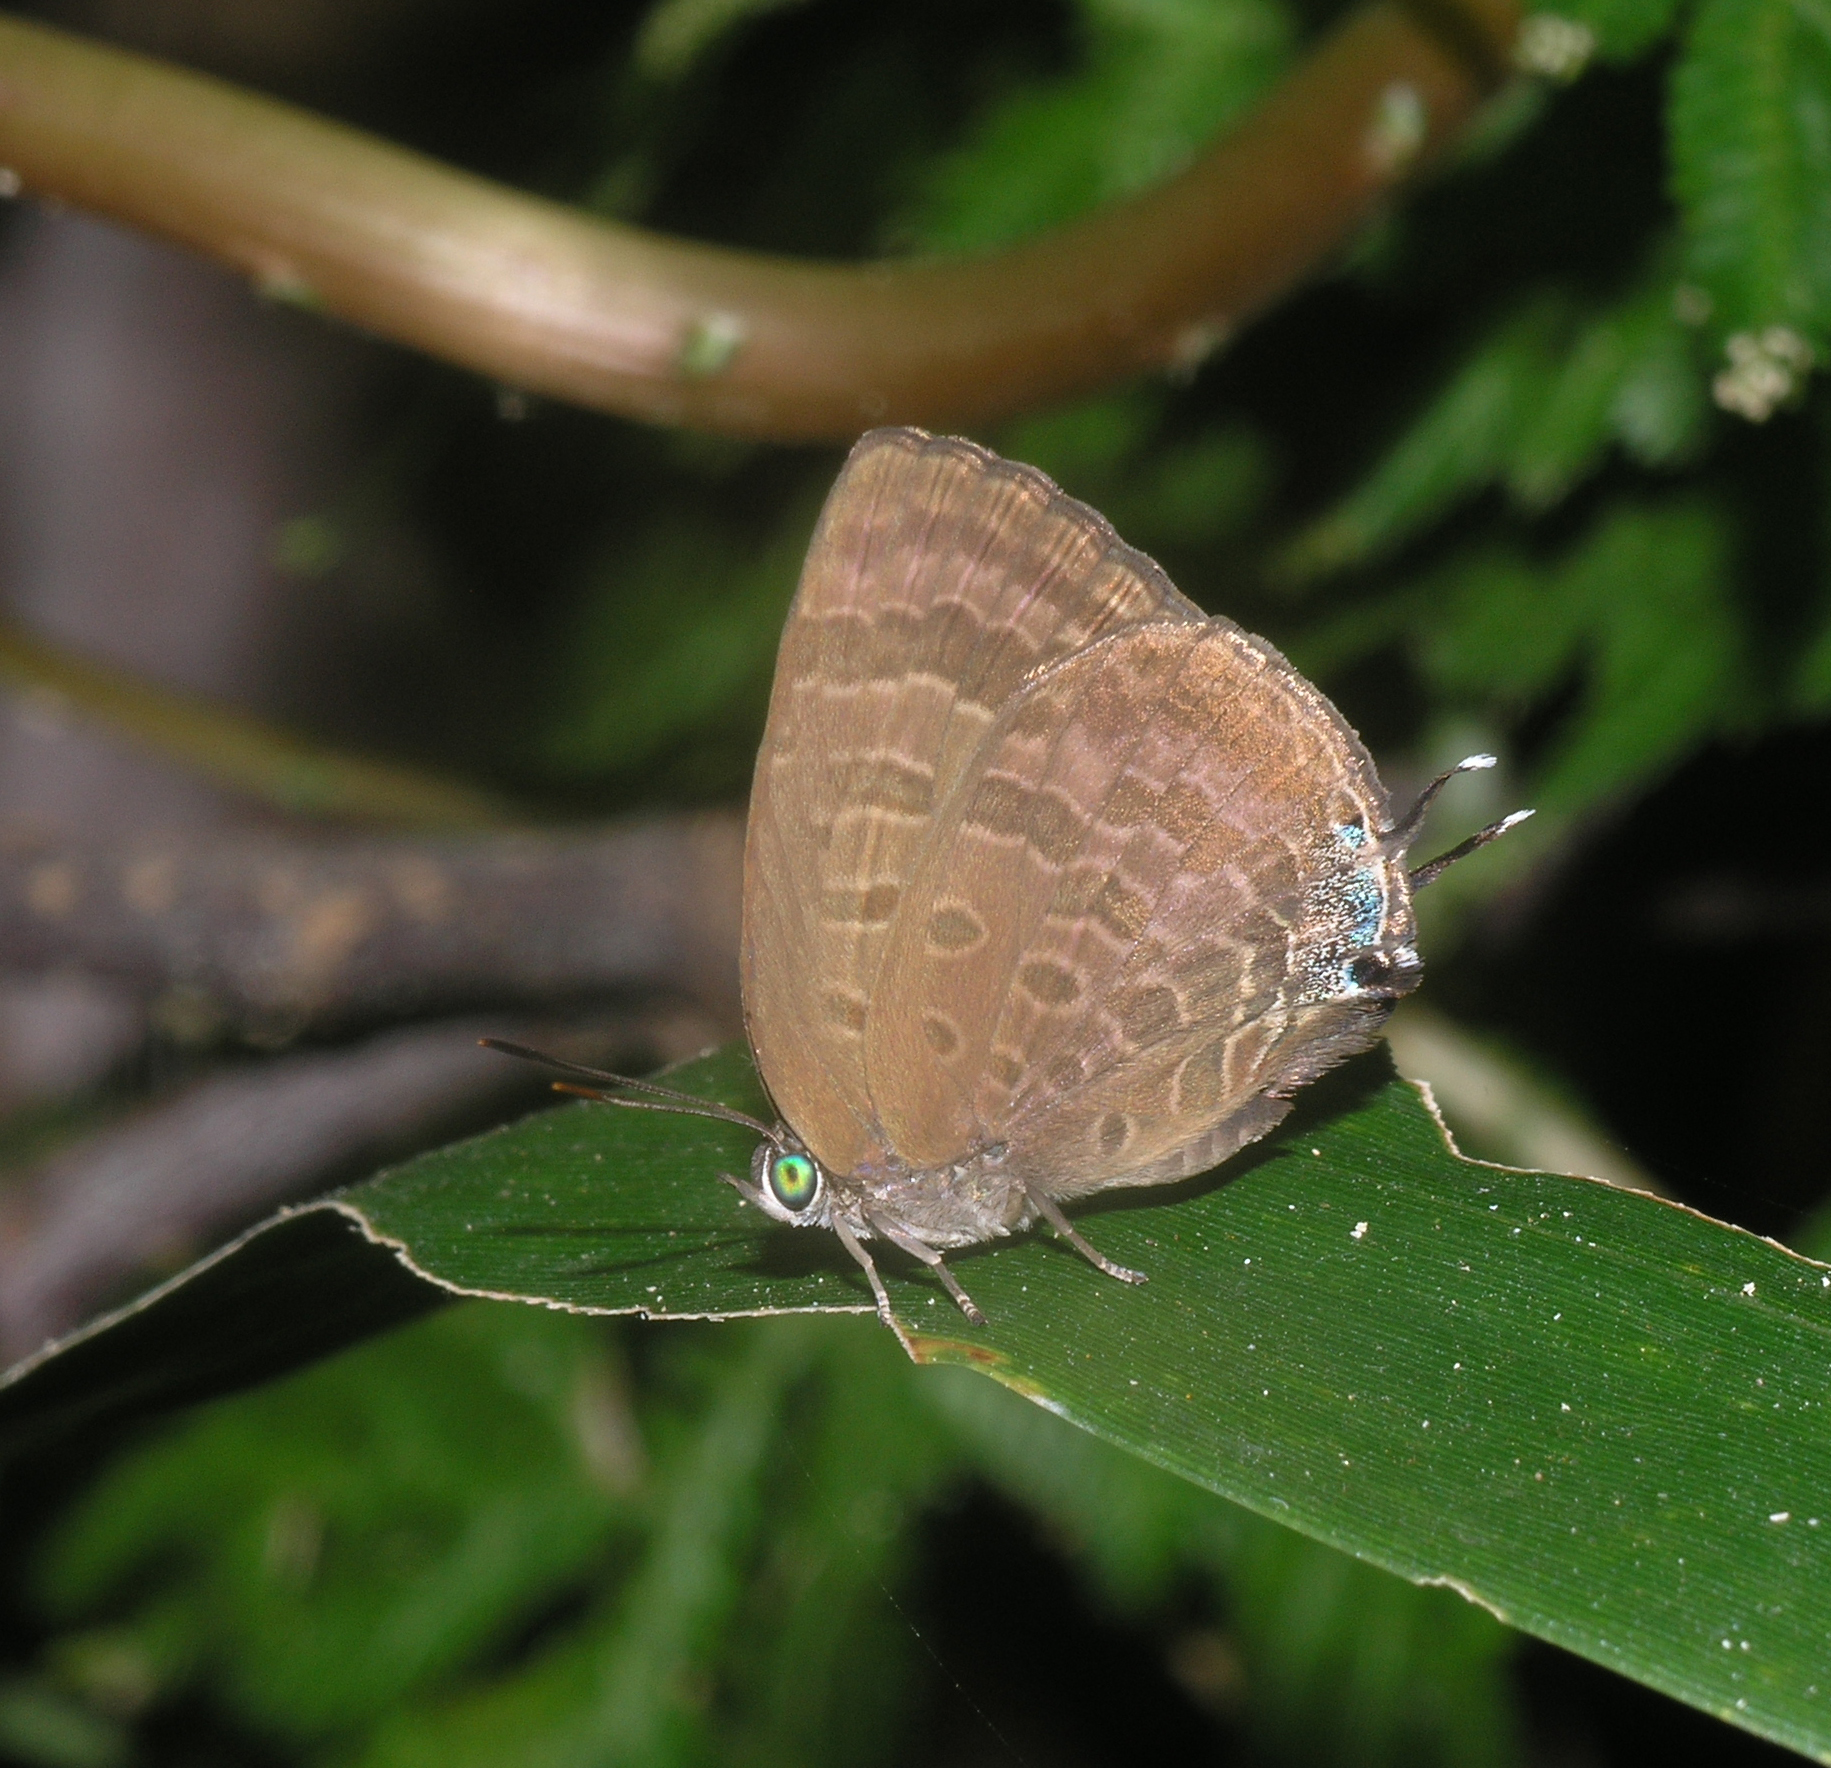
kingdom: Animalia
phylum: Arthropoda
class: Insecta
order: Lepidoptera
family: Lycaenidae
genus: Arhopala
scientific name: Arhopala
